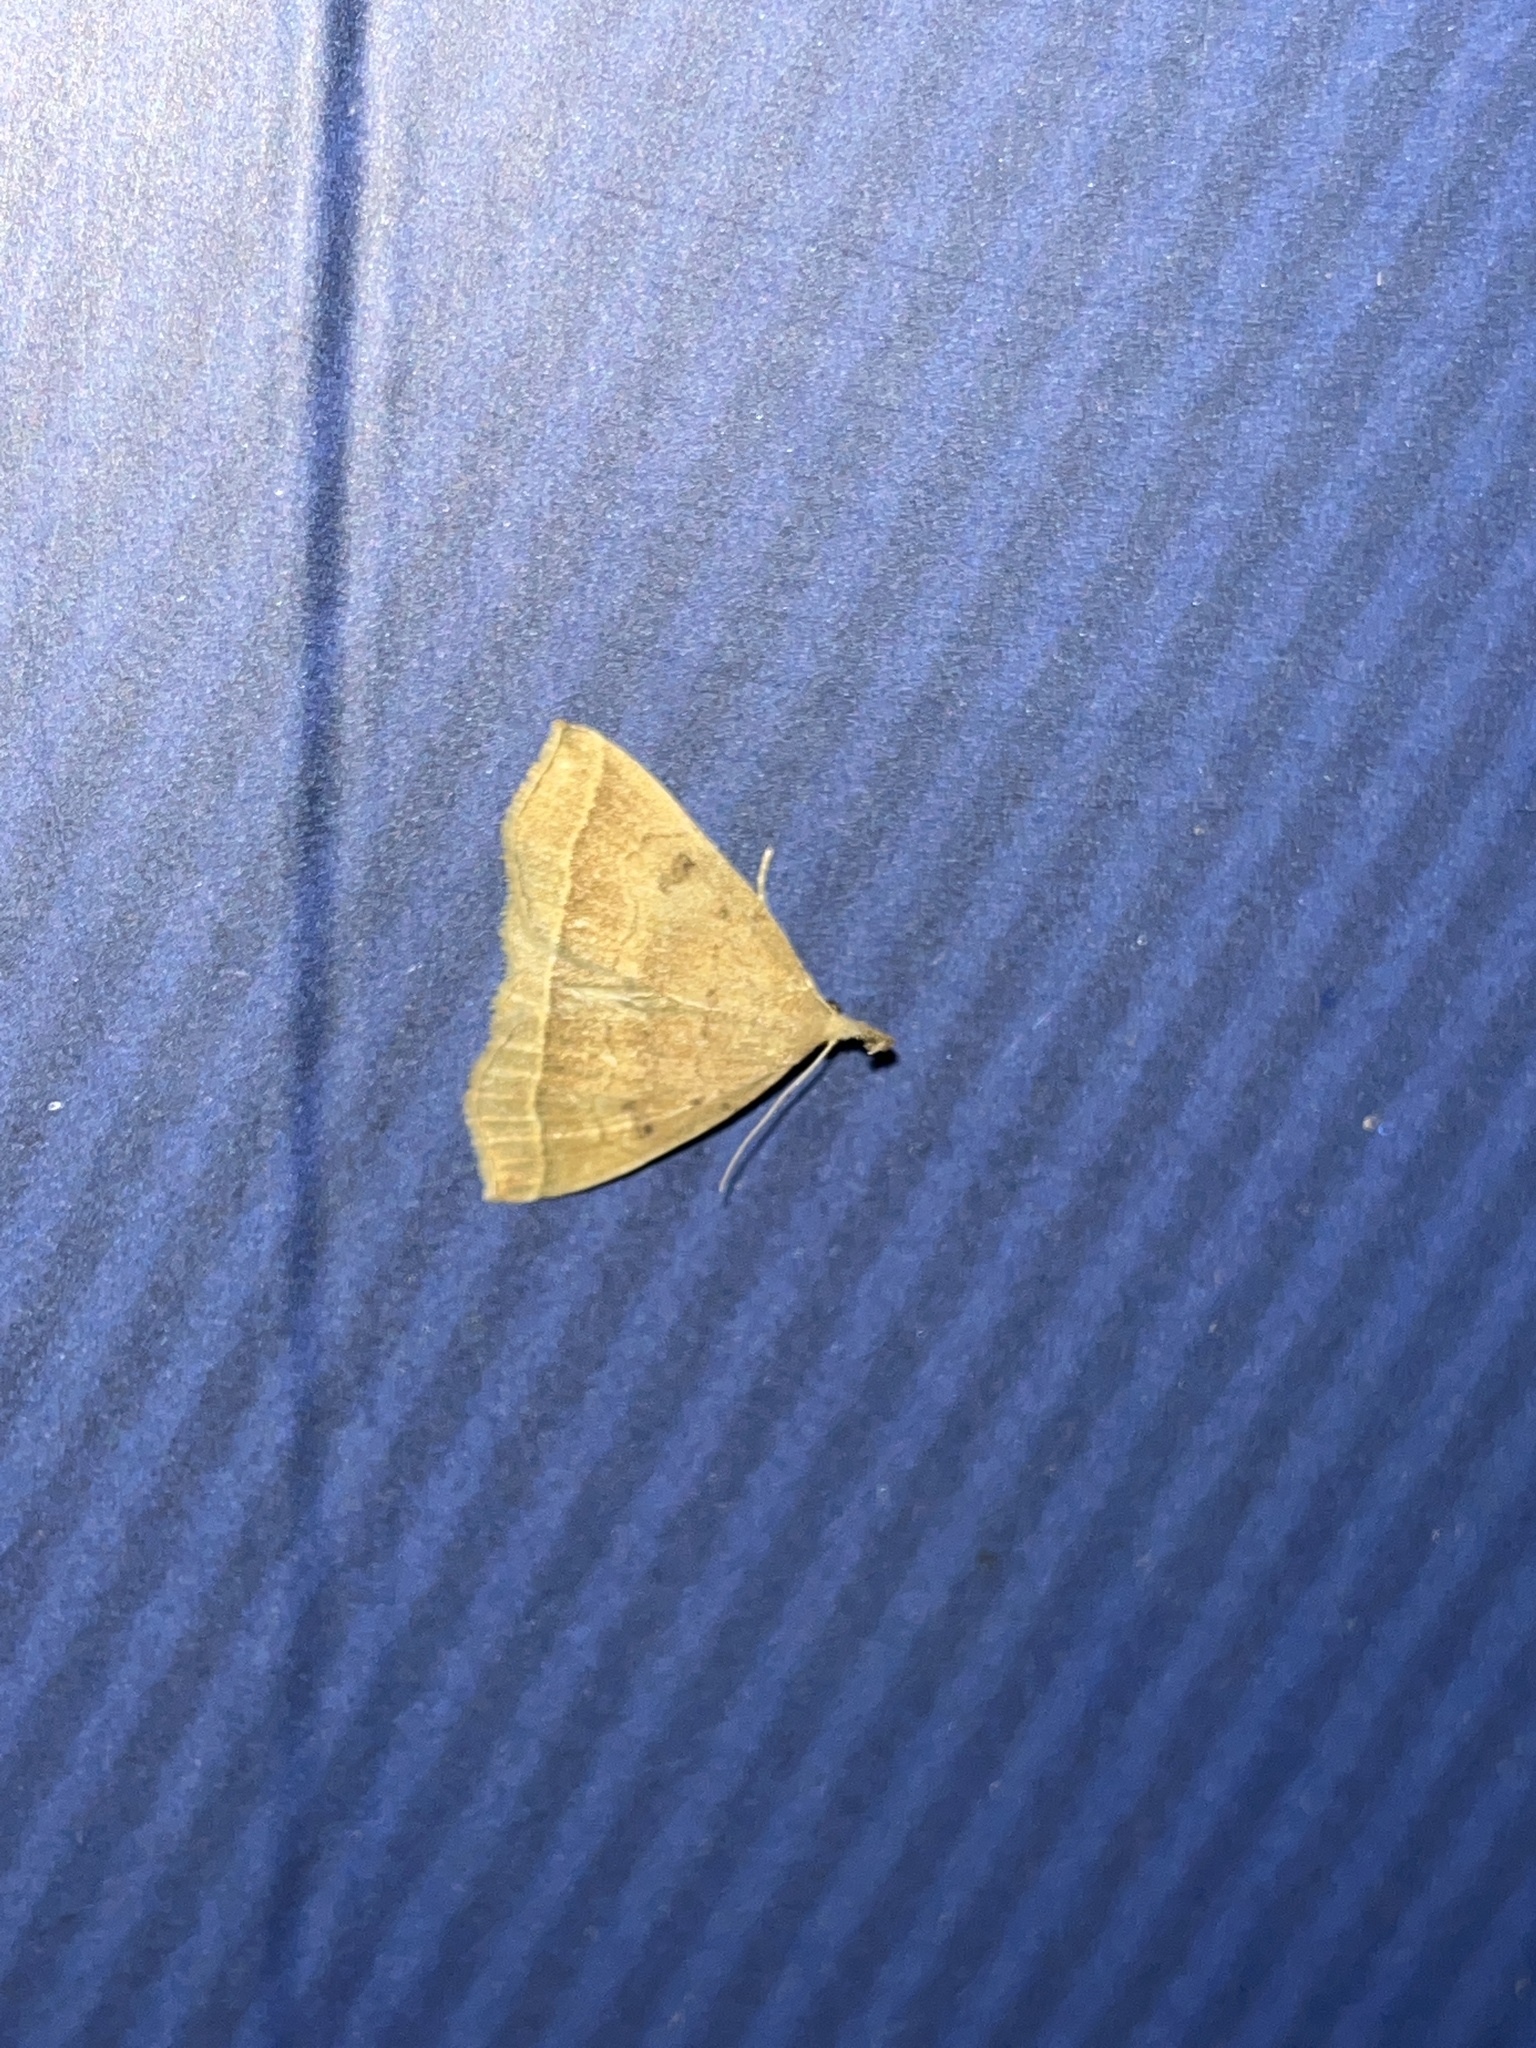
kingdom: Animalia
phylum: Arthropoda
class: Insecta
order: Lepidoptera
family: Erebidae
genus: Pechipogo
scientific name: Pechipogo plumigeralis
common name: Plumed fan-foot
